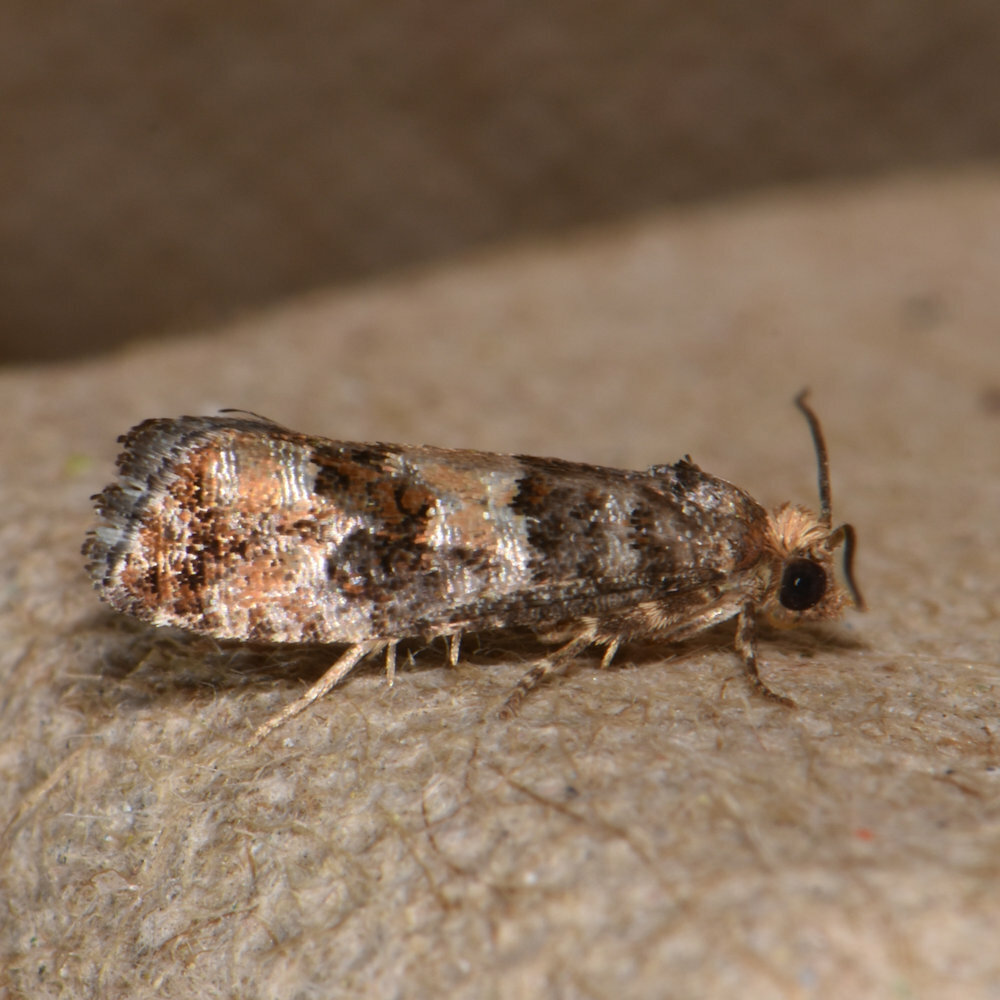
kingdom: Animalia
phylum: Arthropoda
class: Insecta
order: Lepidoptera
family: Tortricidae
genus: Eucopina
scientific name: Eucopina tocullionana
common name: White pinecone borer moth
